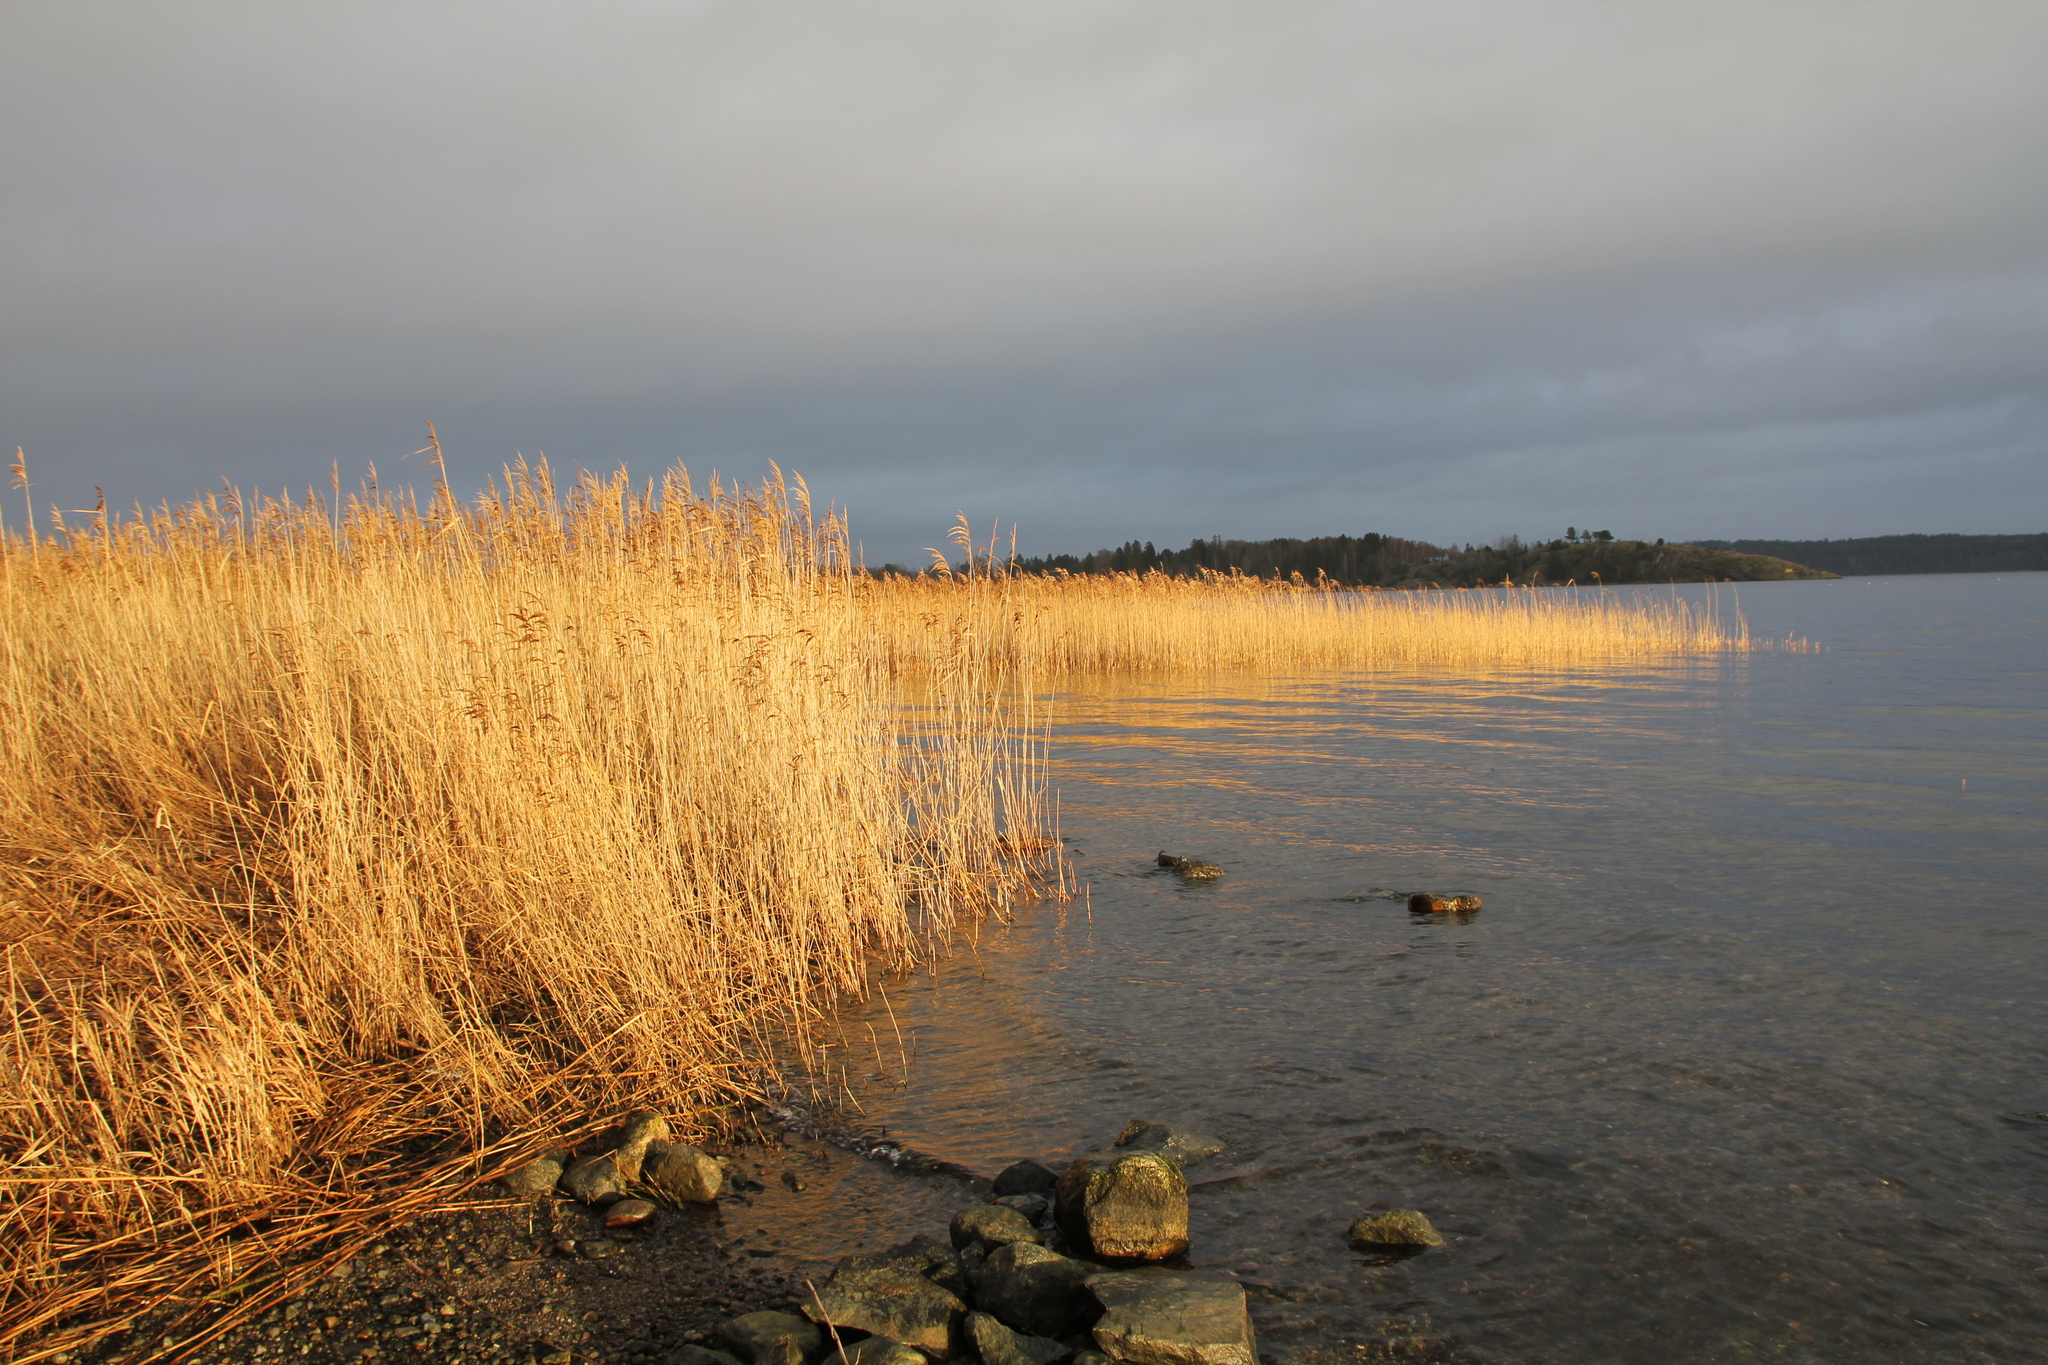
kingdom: Plantae
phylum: Tracheophyta
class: Liliopsida
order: Poales
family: Poaceae
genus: Phragmites
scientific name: Phragmites australis
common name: Common reed
